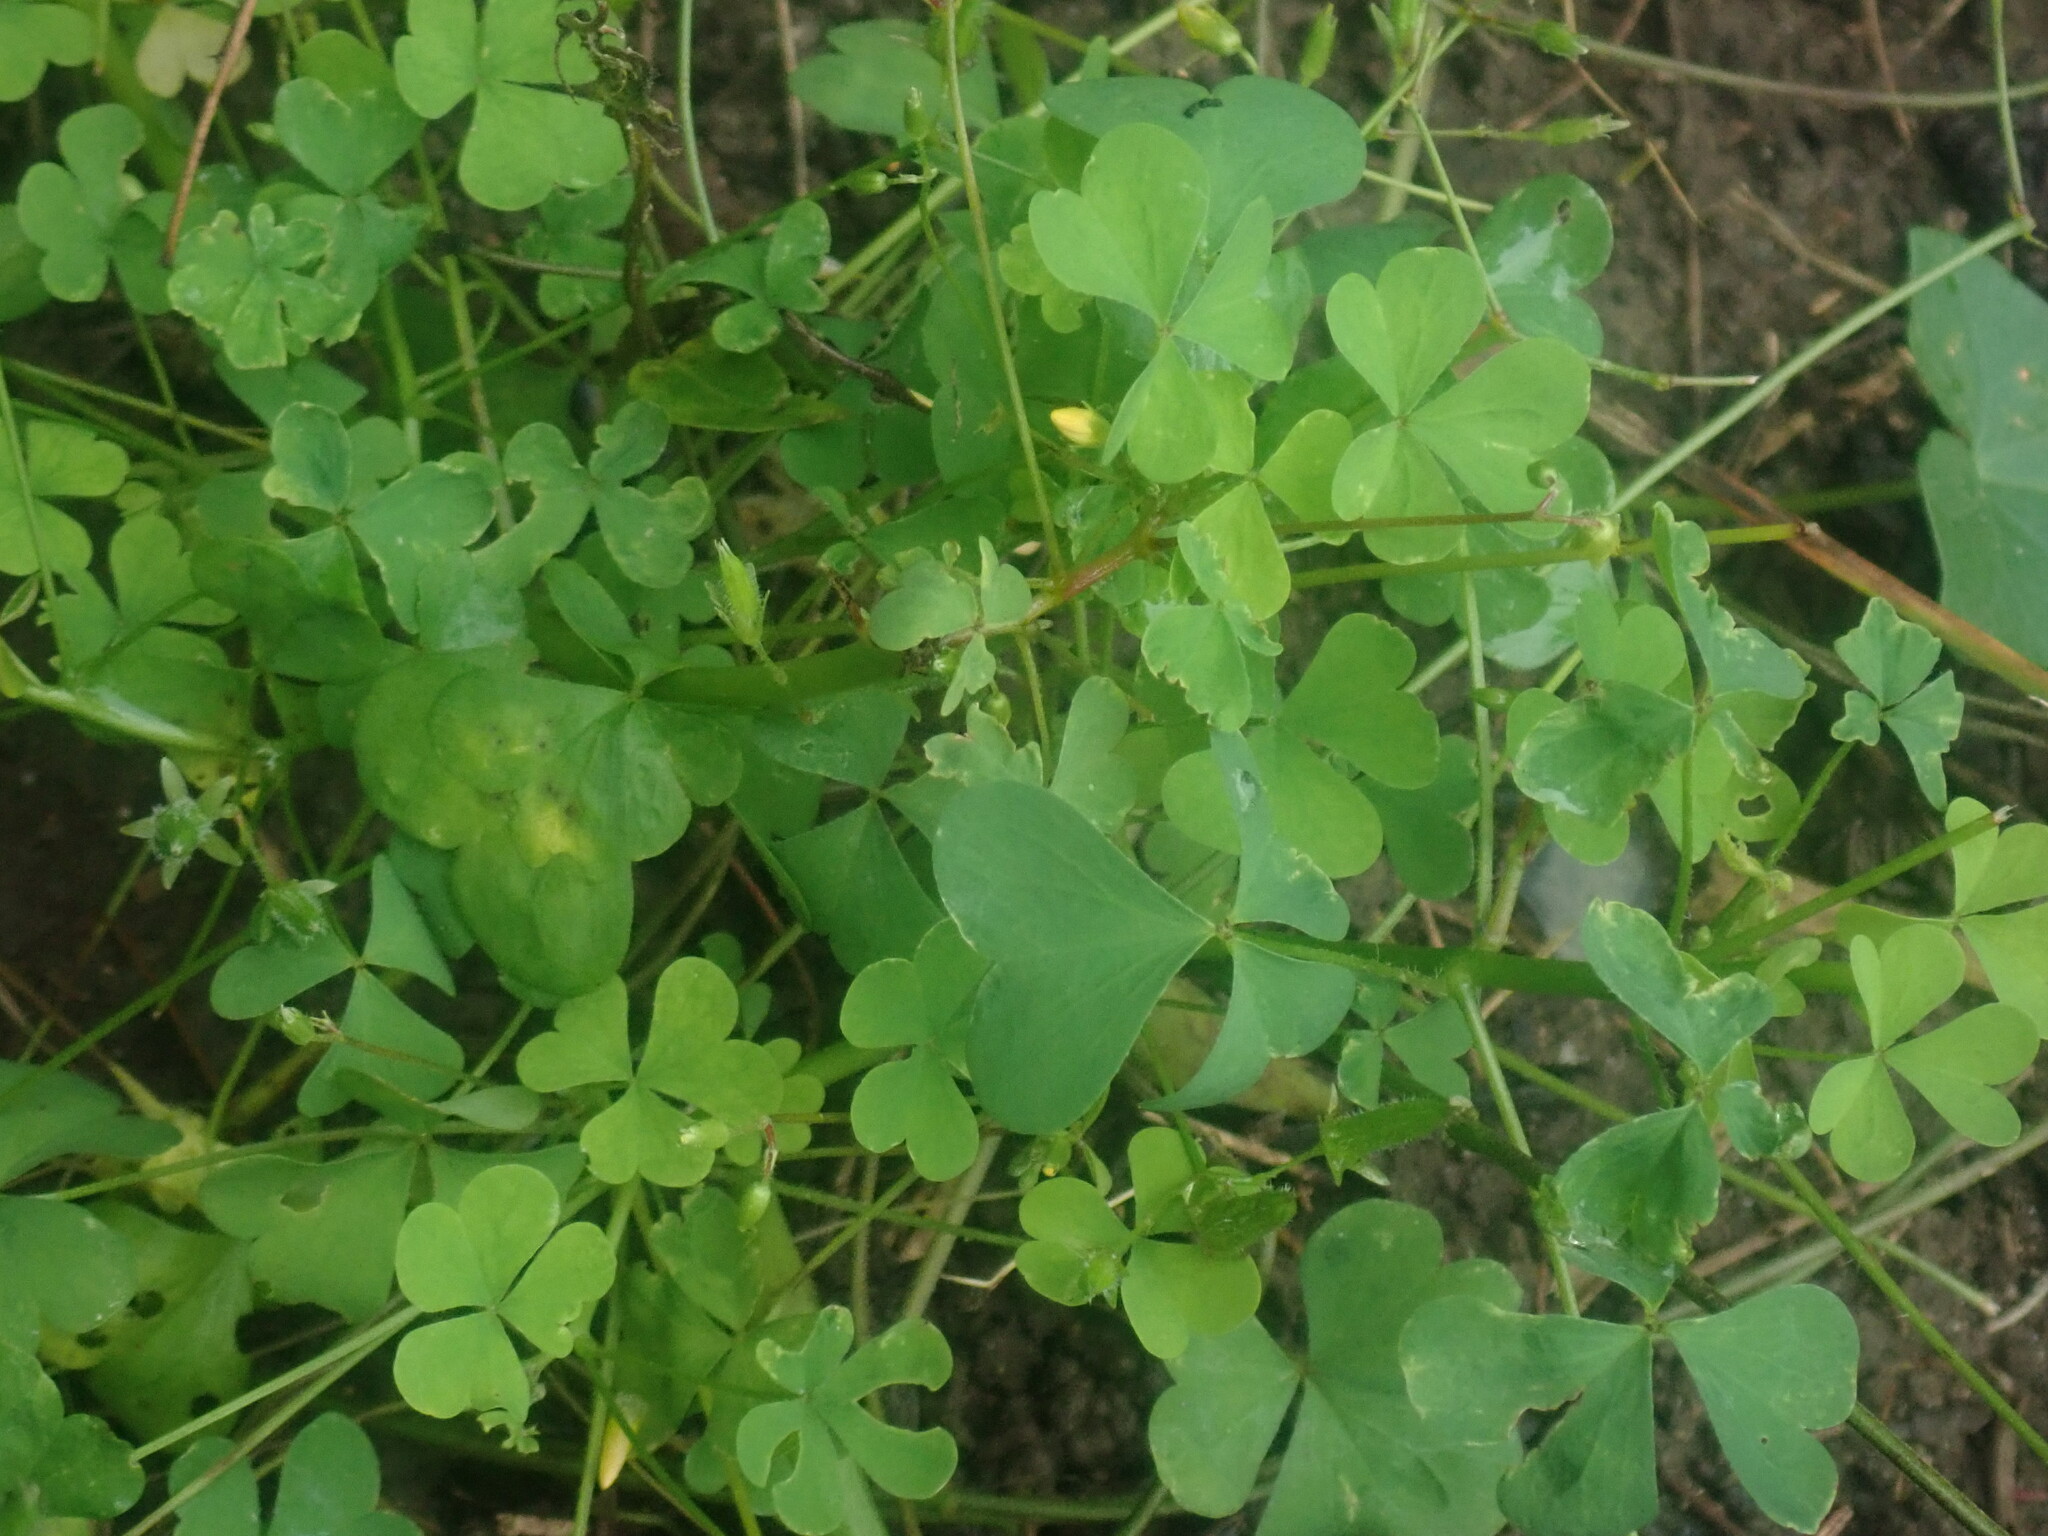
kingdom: Plantae
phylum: Tracheophyta
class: Magnoliopsida
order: Oxalidales
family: Oxalidaceae
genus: Oxalis
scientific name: Oxalis
